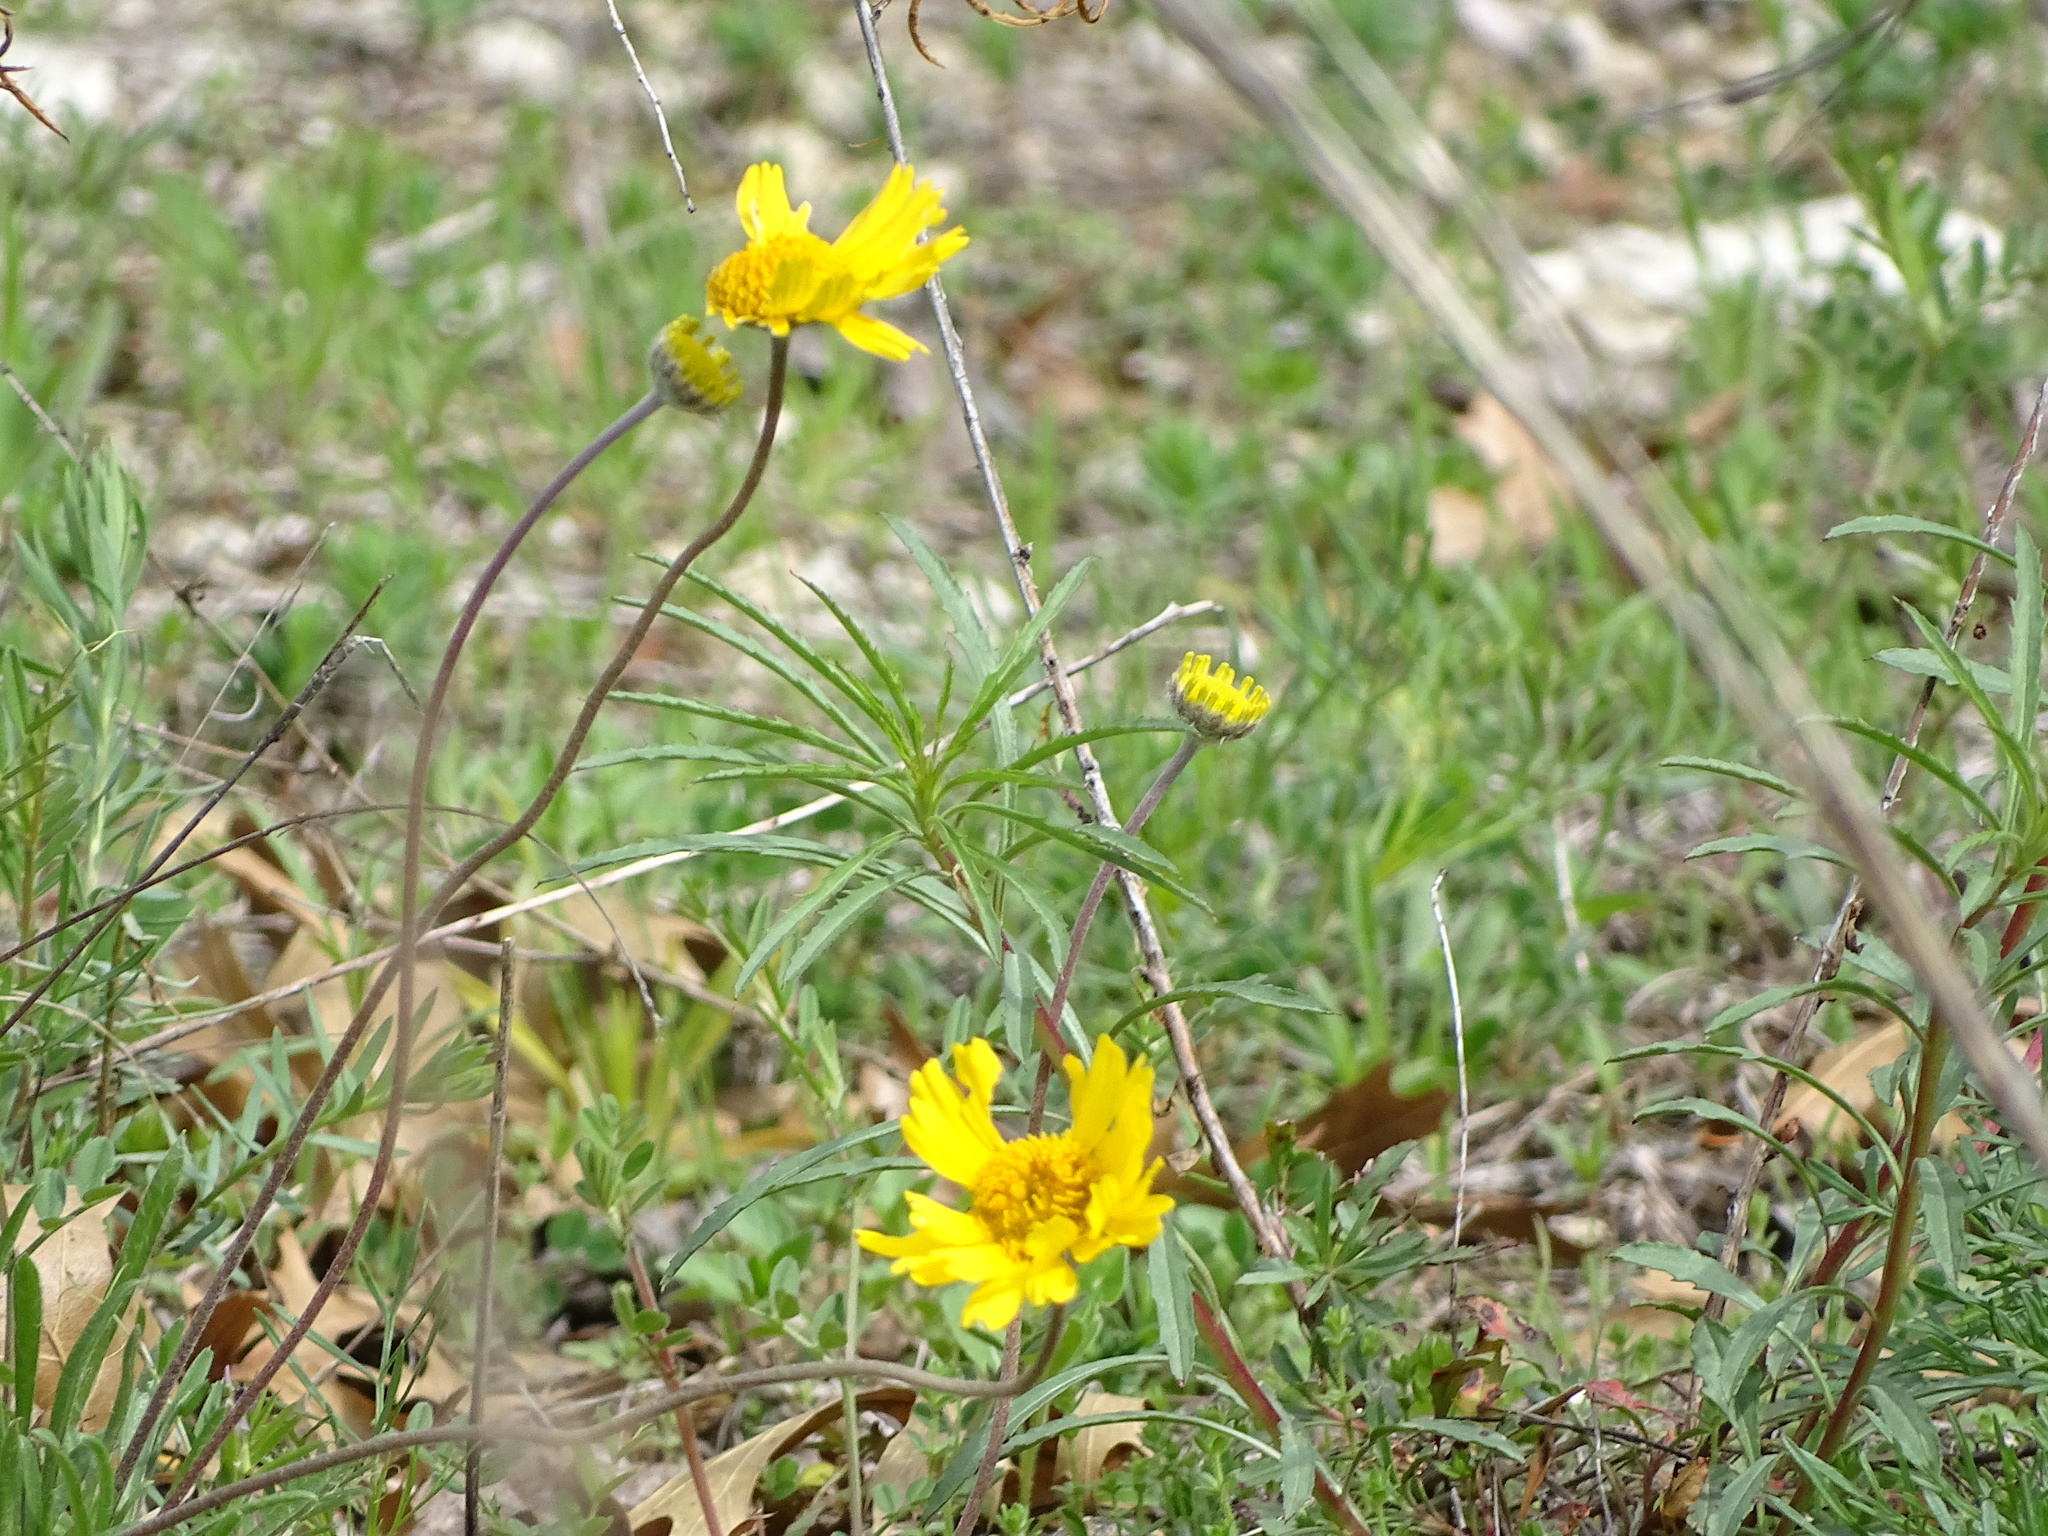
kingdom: Plantae
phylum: Tracheophyta
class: Magnoliopsida
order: Asterales
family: Asteraceae
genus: Tetraneuris
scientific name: Tetraneuris scaposa
